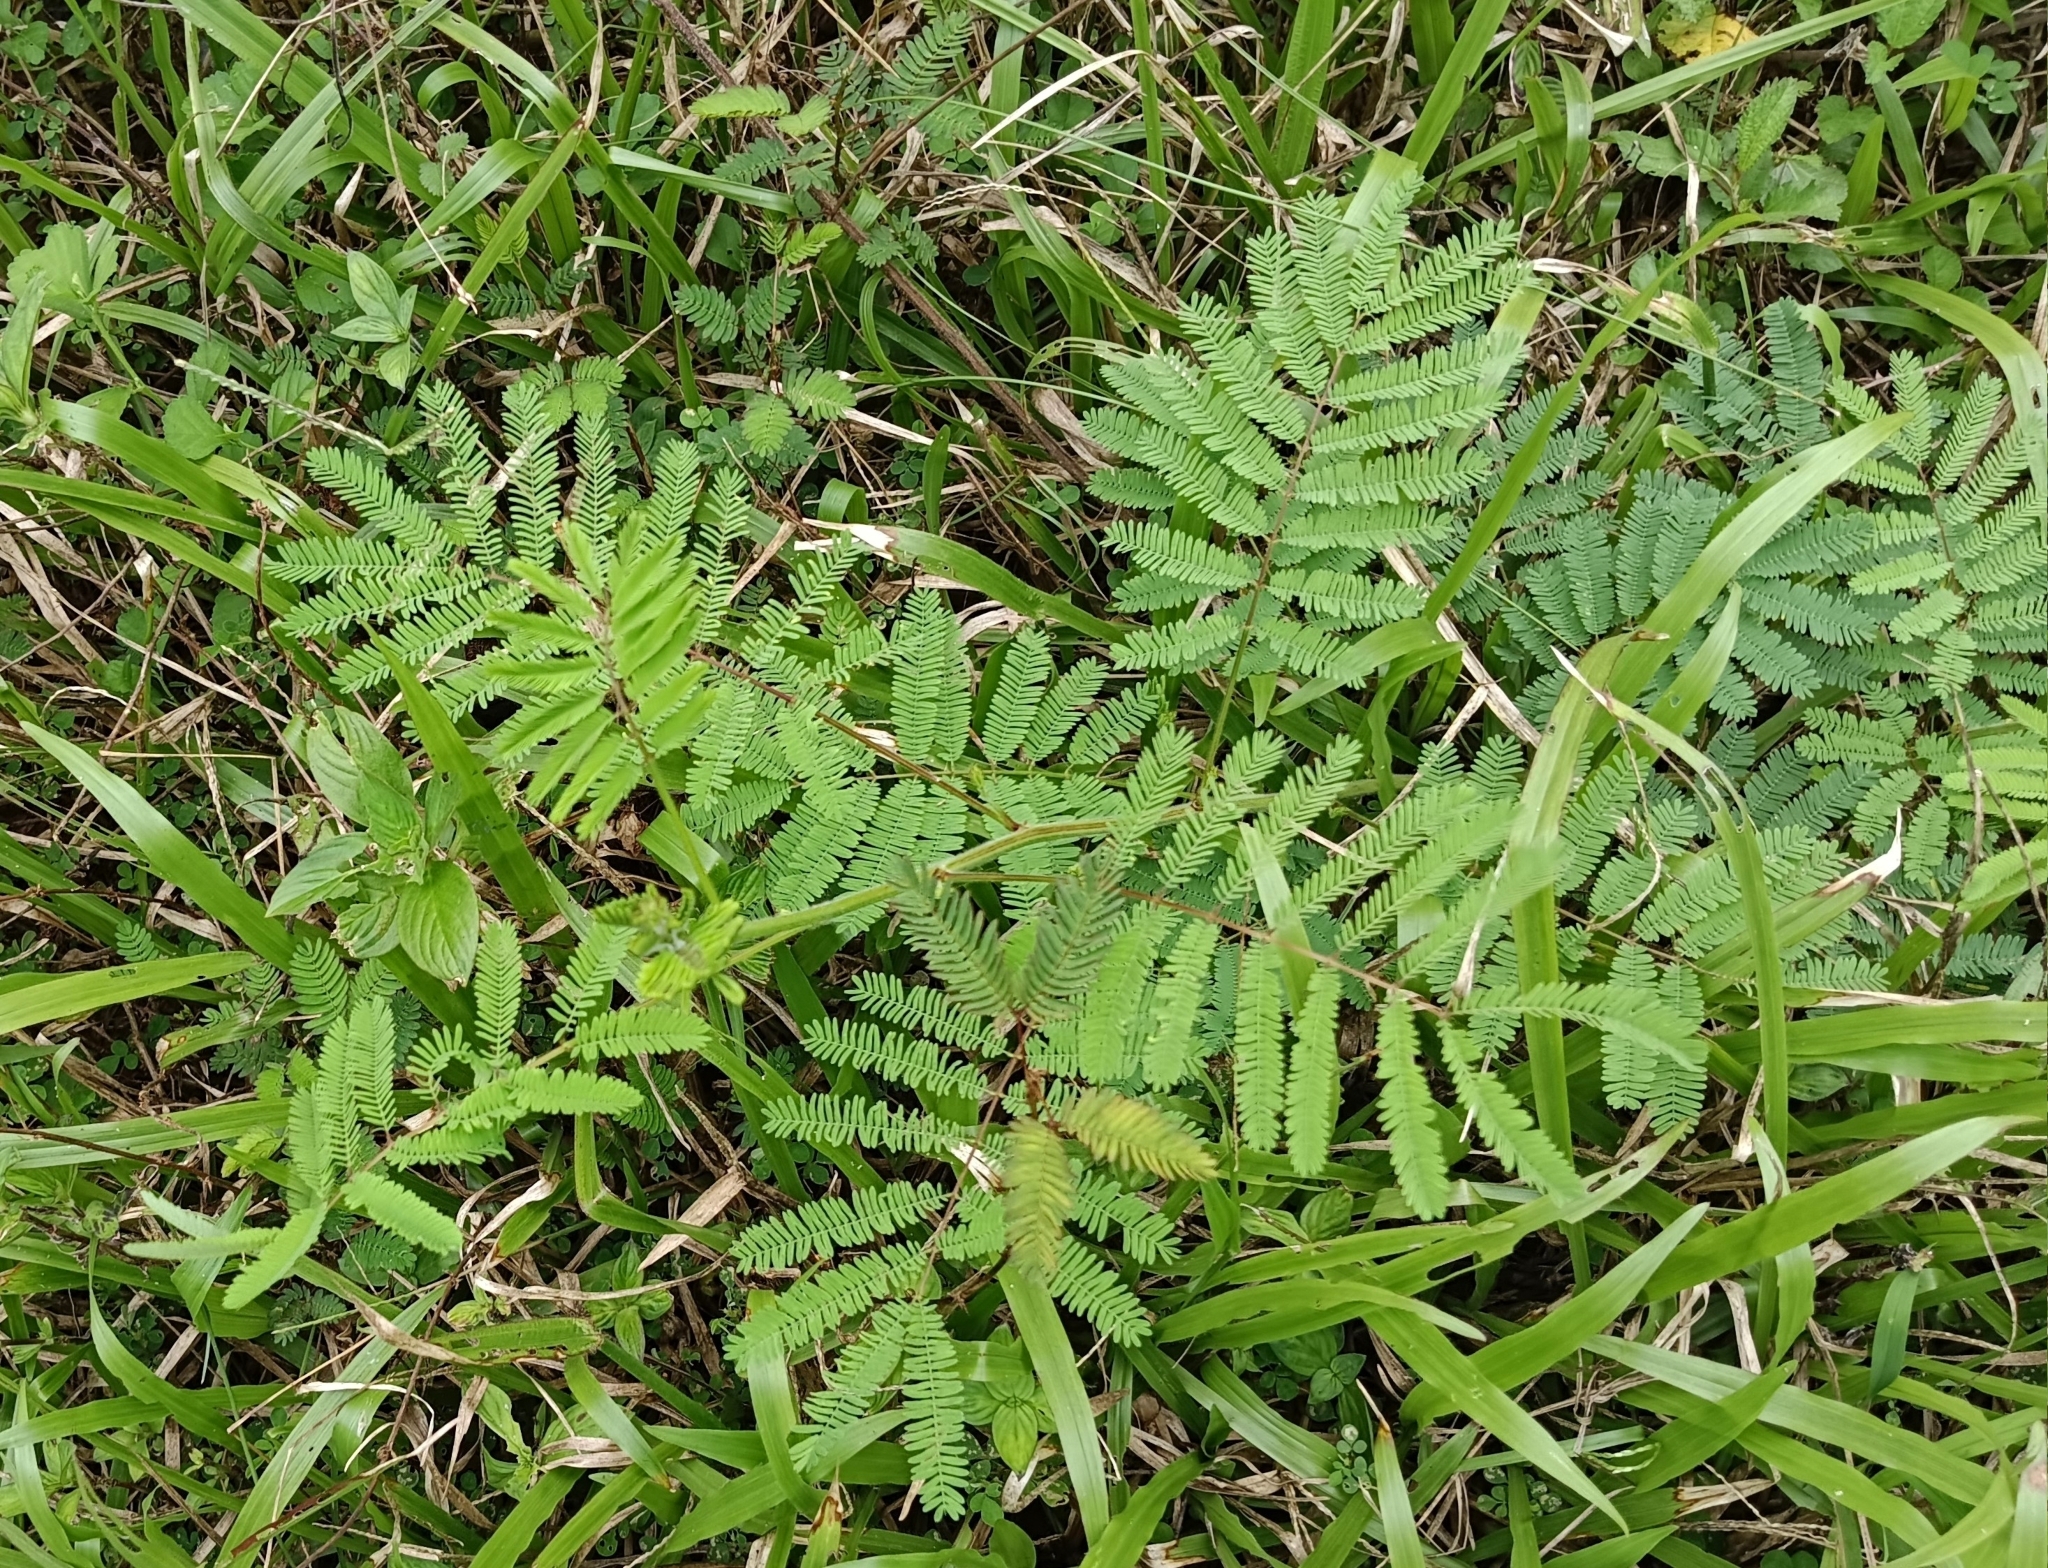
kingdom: Plantae
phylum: Tracheophyta
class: Magnoliopsida
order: Fabales
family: Fabaceae
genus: Mimosa
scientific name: Mimosa diplotricha
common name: Giant sensitive-plant
